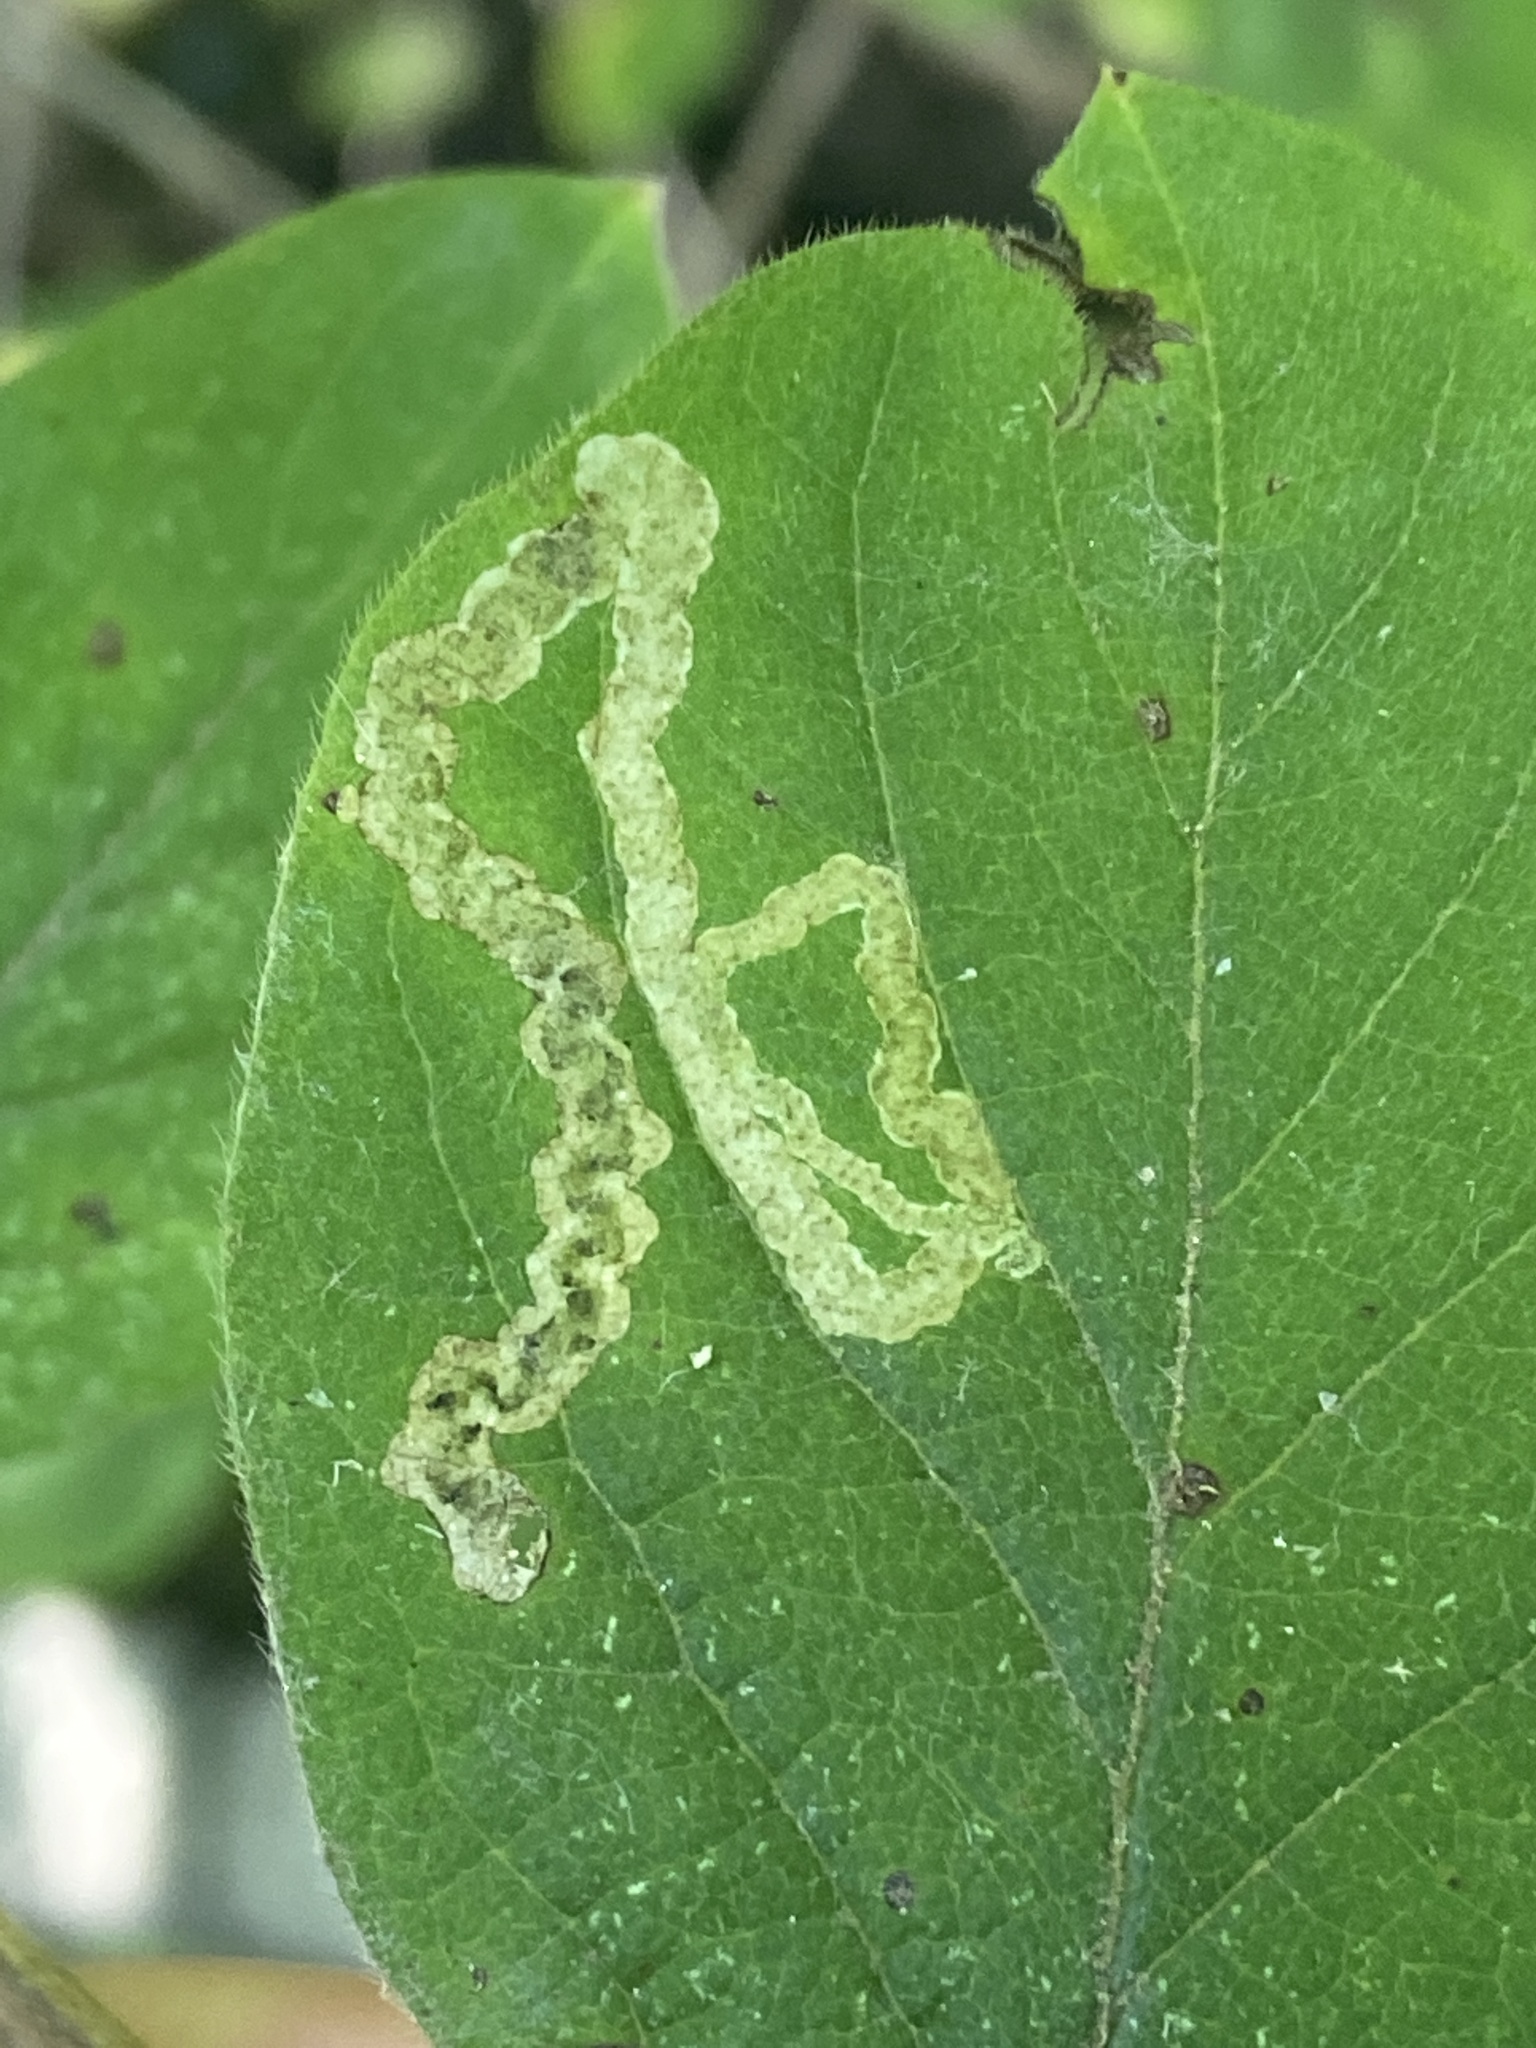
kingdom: Animalia
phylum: Arthropoda
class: Insecta
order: Diptera
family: Agromyzidae
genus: Aulagromyza
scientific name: Aulagromyza luteoscutellata
